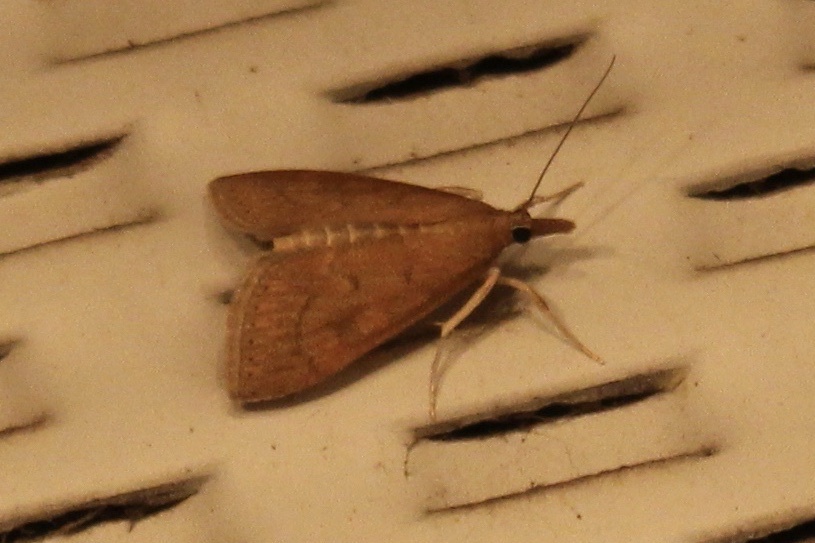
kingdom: Animalia
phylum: Arthropoda
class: Insecta
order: Lepidoptera
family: Crambidae
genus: Udea
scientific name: Udea rubigalis
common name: Celery leaftier moth
